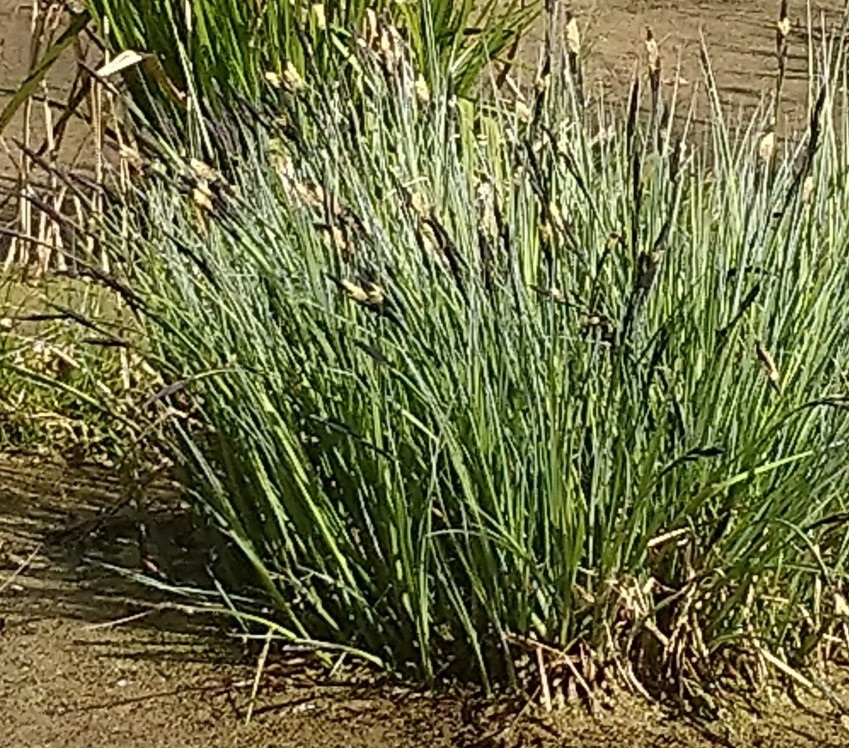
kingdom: Plantae
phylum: Tracheophyta
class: Liliopsida
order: Poales
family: Cyperaceae
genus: Carex
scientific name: Carex elata
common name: Tufted sedge
